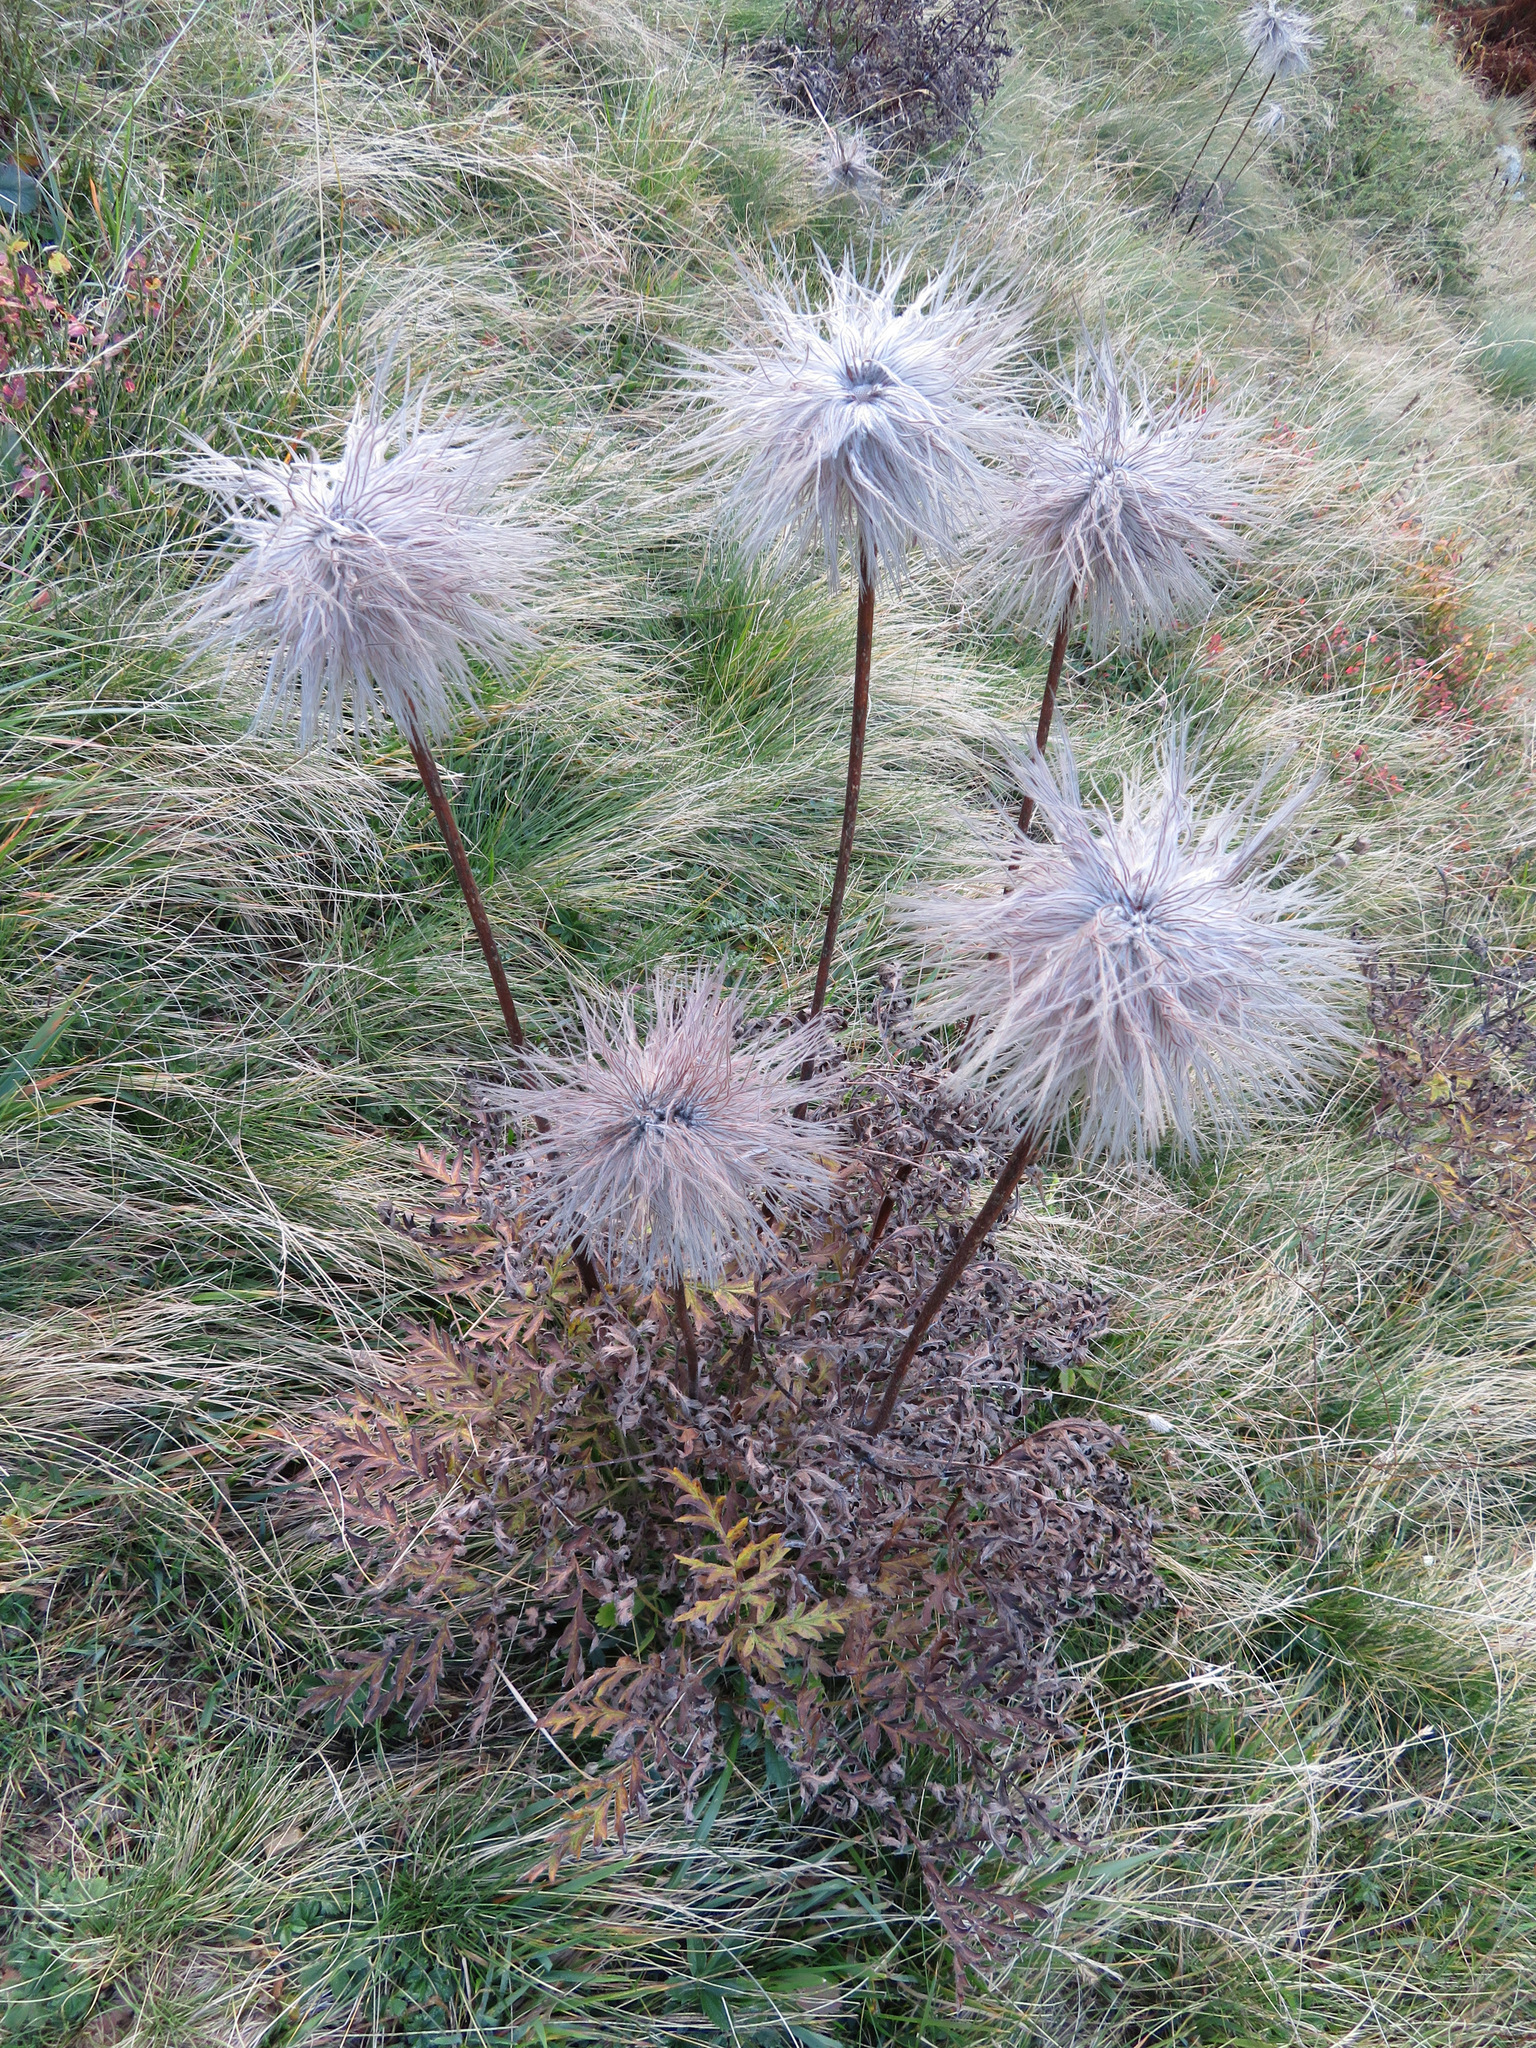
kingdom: Plantae
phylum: Tracheophyta
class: Magnoliopsida
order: Ranunculales
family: Ranunculaceae
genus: Pulsatilla
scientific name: Pulsatilla alpina
